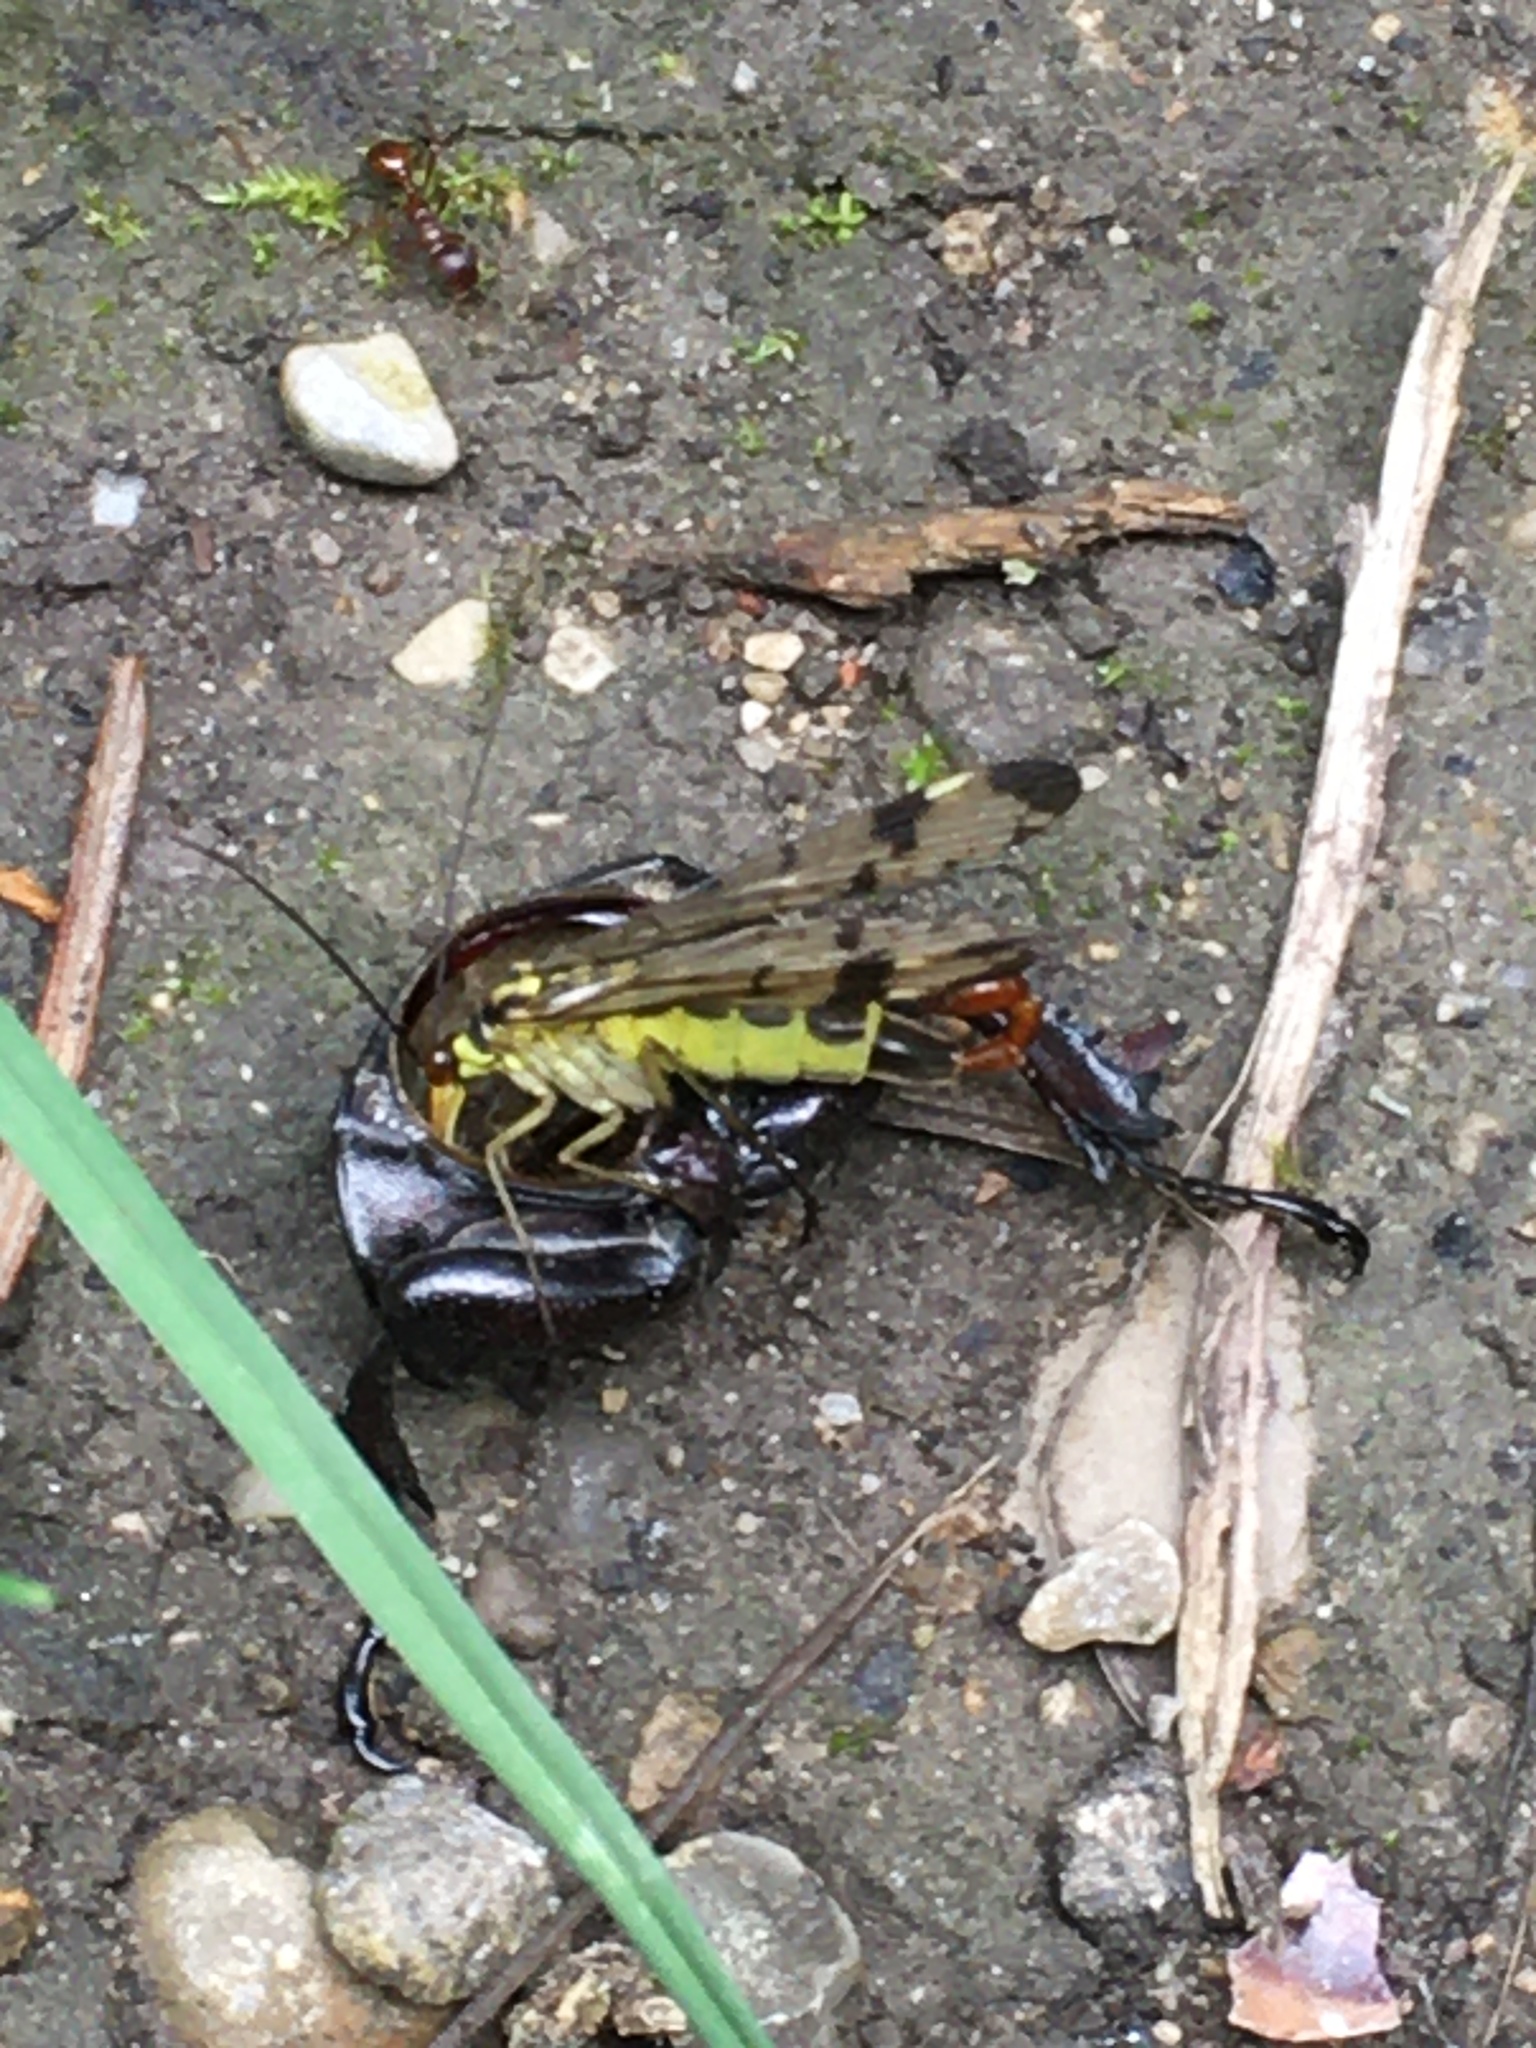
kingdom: Animalia
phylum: Arthropoda
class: Insecta
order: Mecoptera
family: Panorpidae
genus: Panorpa
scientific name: Panorpa communis
